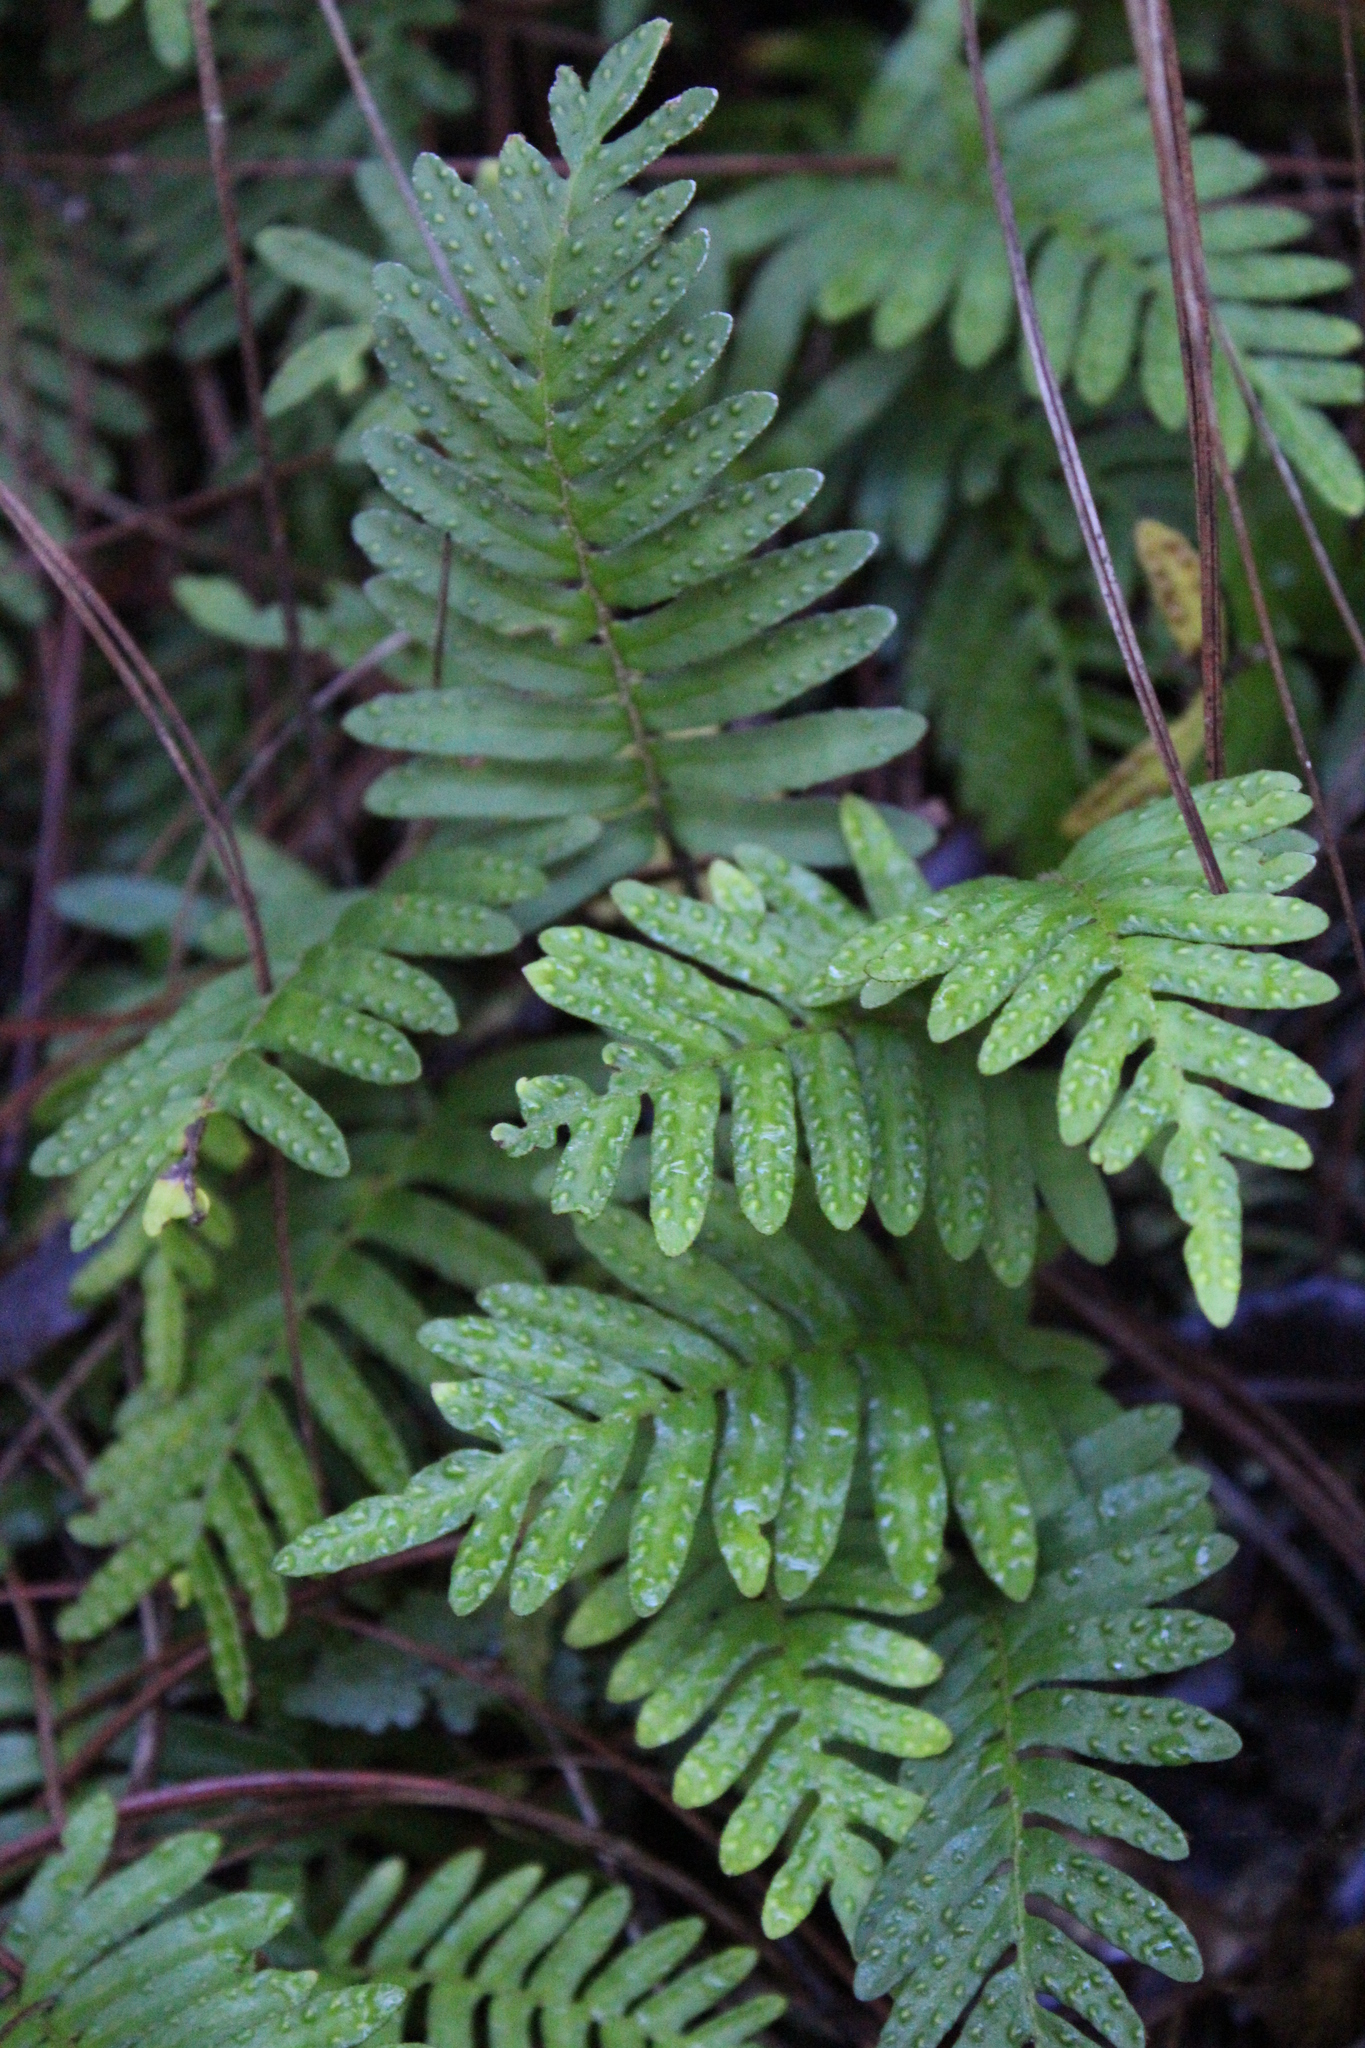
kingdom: Plantae
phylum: Tracheophyta
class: Polypodiopsida
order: Polypodiales
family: Polypodiaceae
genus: Pleopeltis
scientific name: Pleopeltis michauxiana
